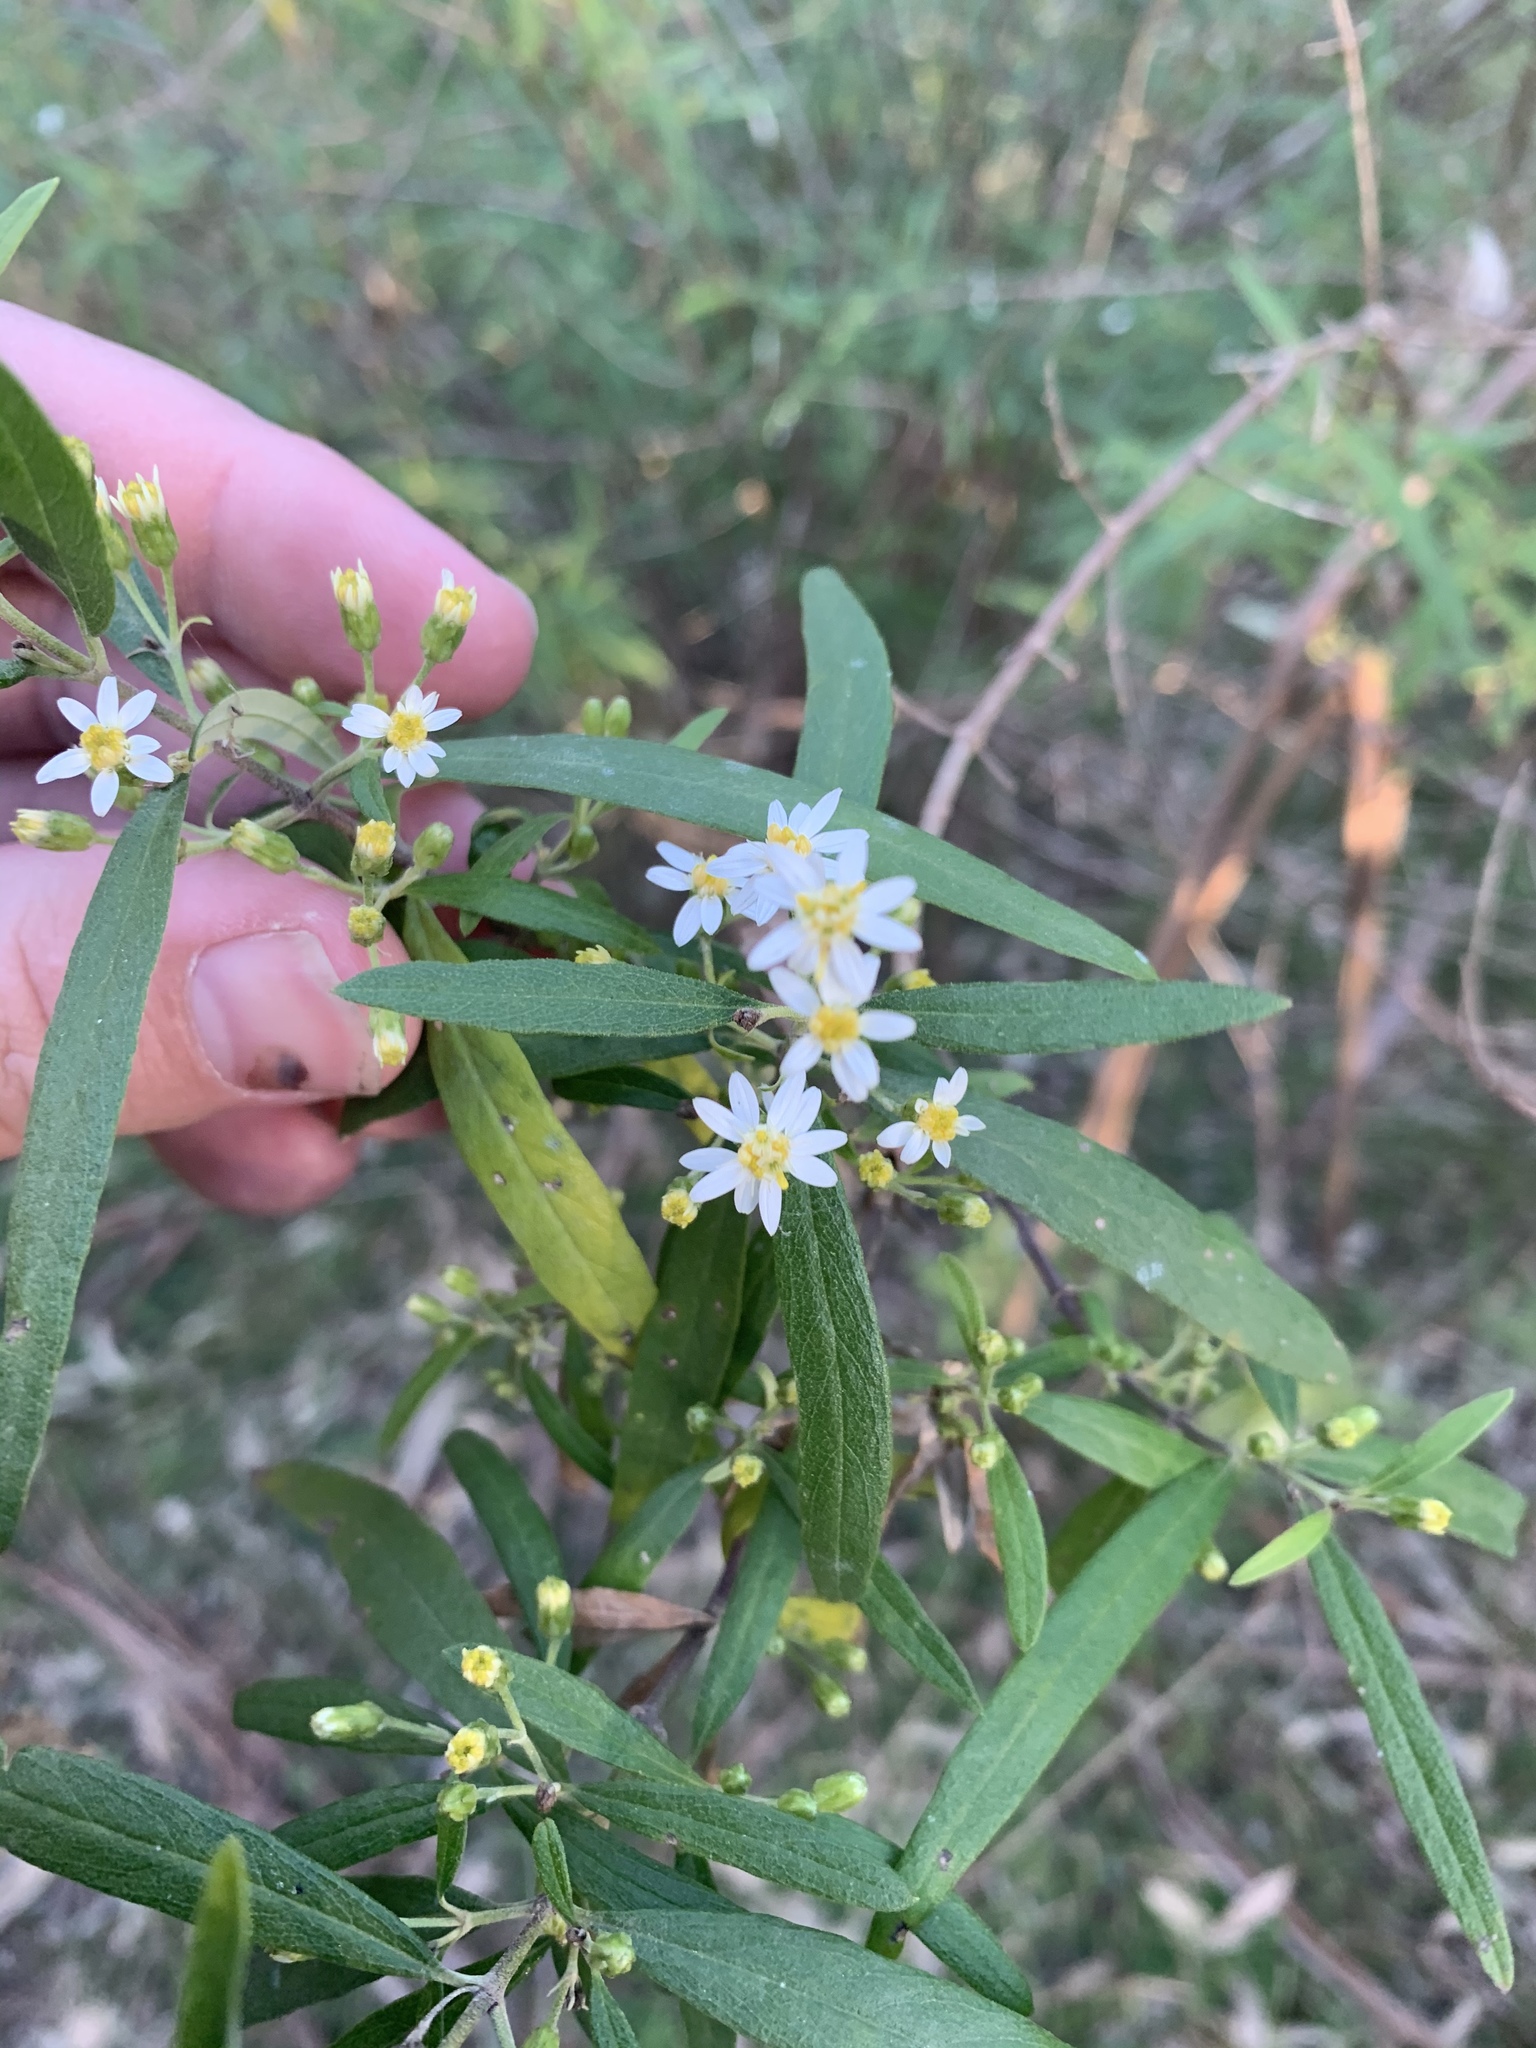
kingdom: Plantae
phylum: Tracheophyta
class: Magnoliopsida
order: Asterales
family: Asteraceae
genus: Olearia
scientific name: Olearia viscidula
